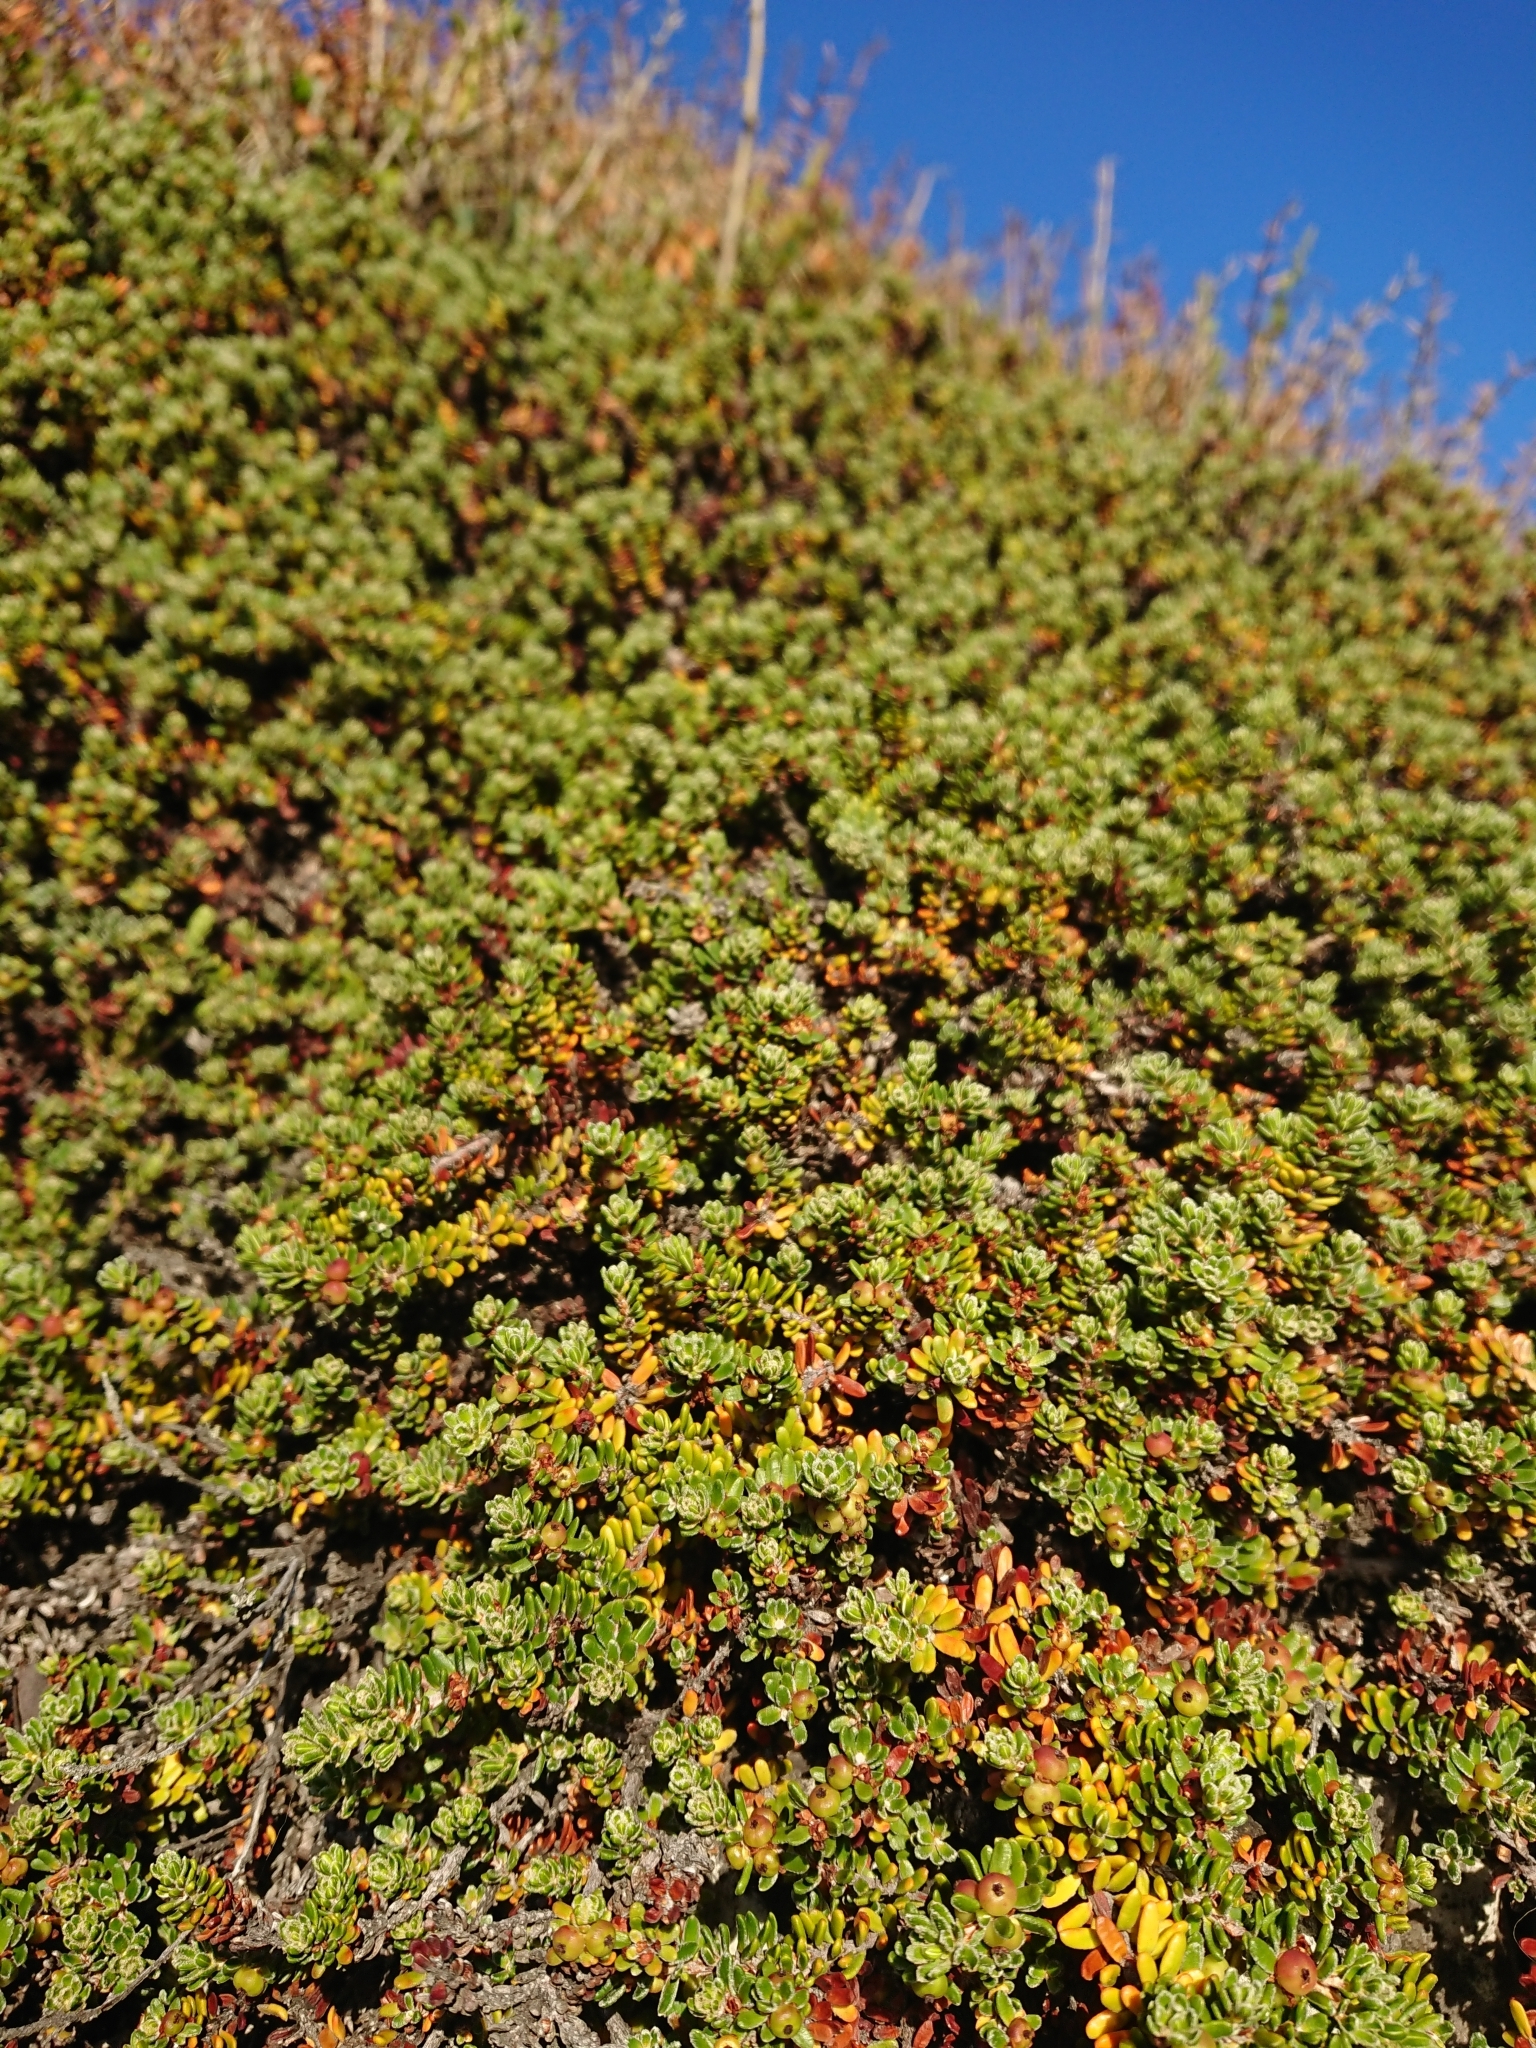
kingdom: Plantae
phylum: Tracheophyta
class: Magnoliopsida
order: Ericales
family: Ericaceae
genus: Empetrum
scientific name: Empetrum rubrum
